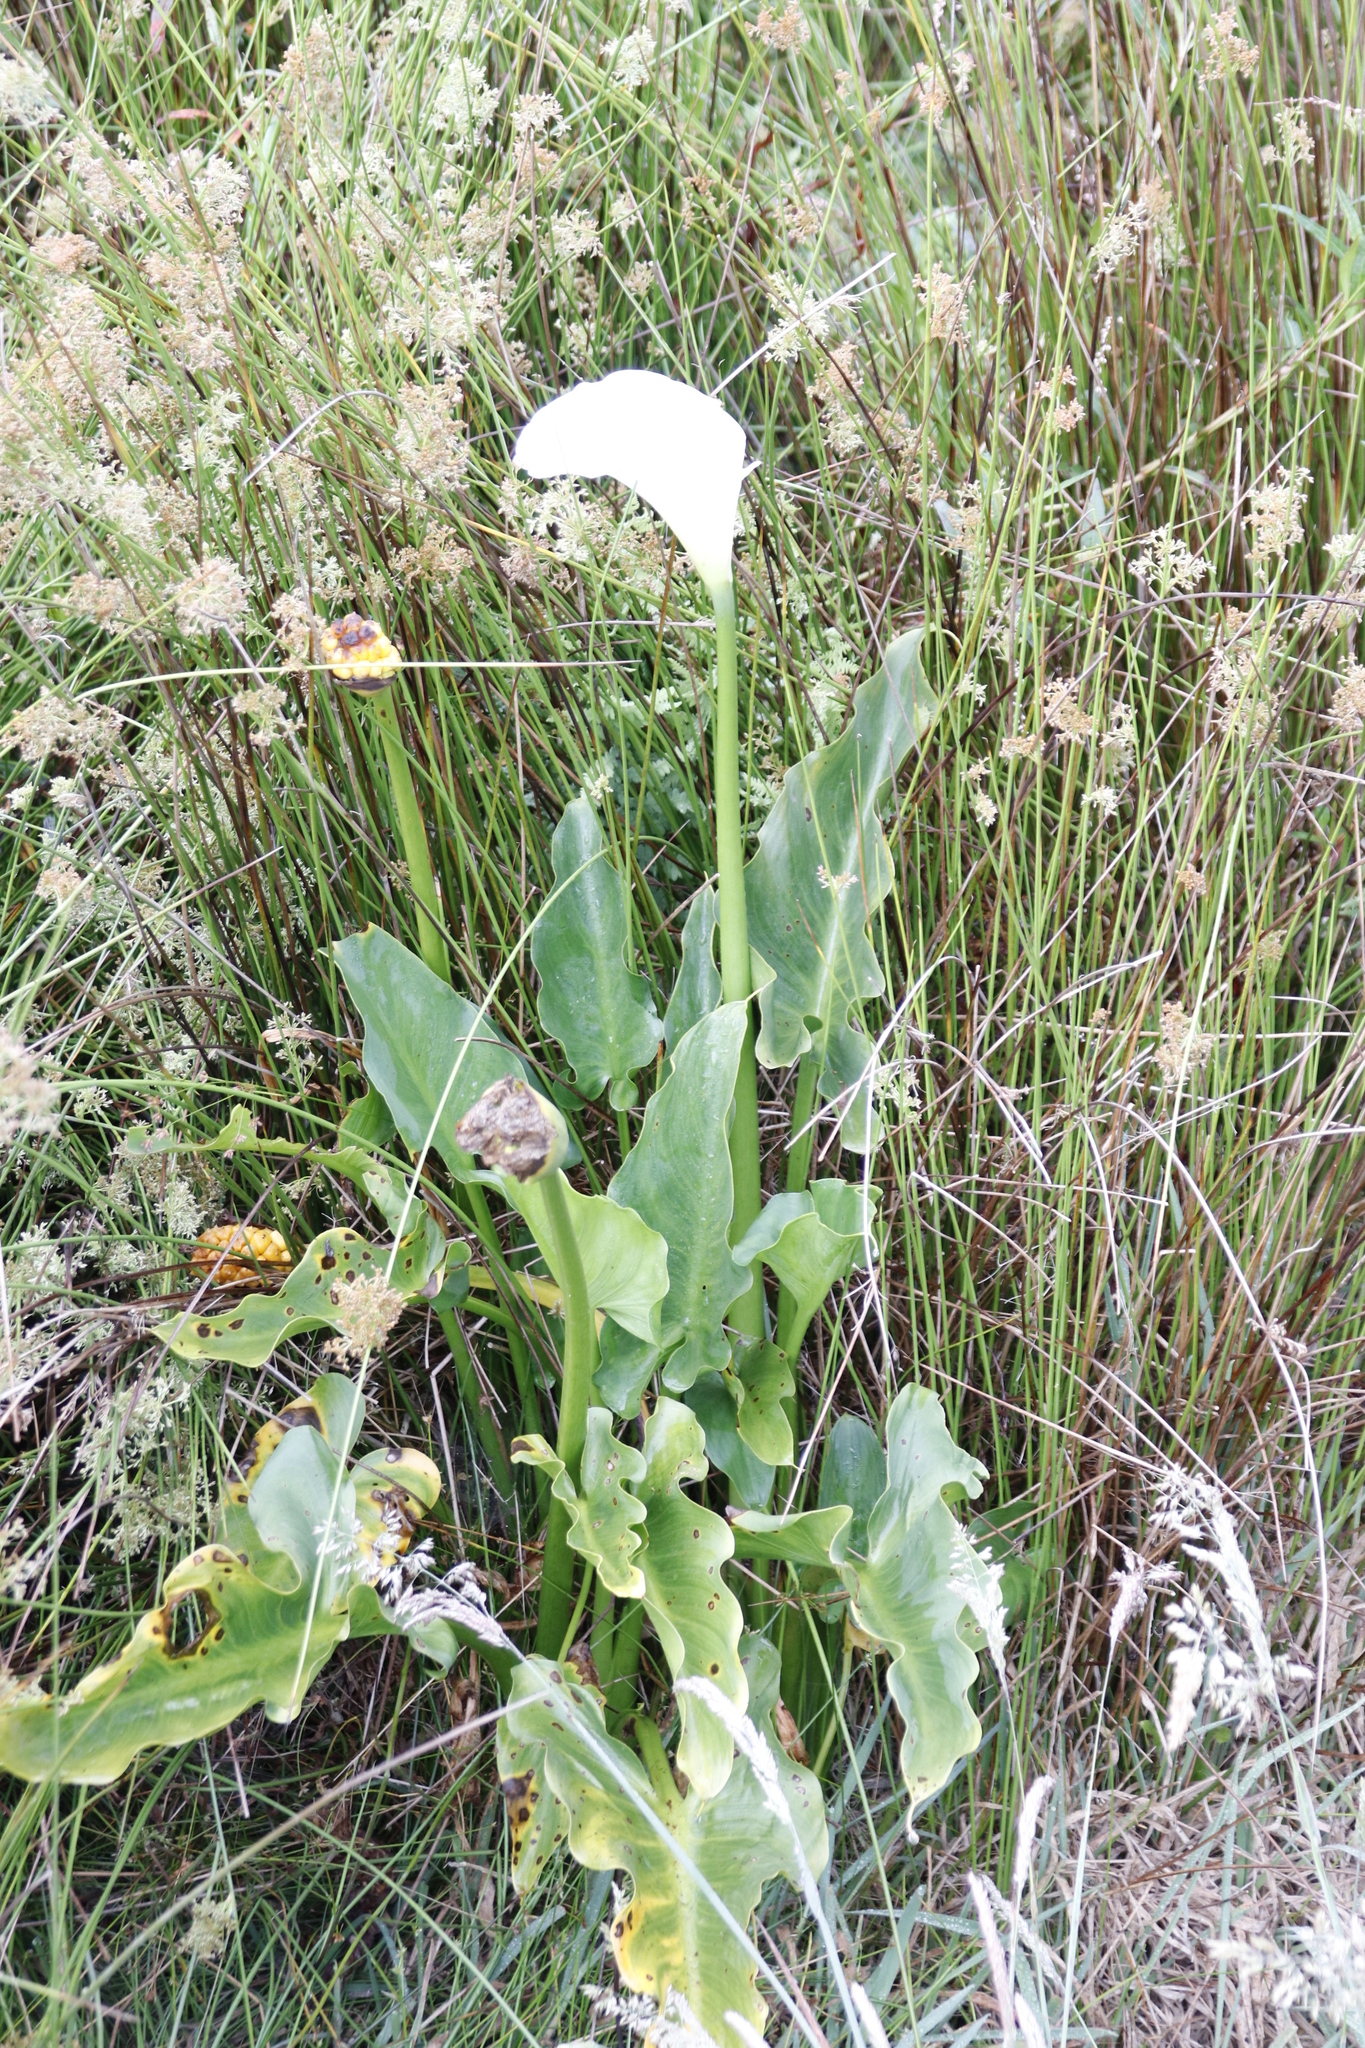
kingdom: Plantae
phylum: Tracheophyta
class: Liliopsida
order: Alismatales
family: Araceae
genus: Zantedeschia
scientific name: Zantedeschia aethiopica
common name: Altar-lily
